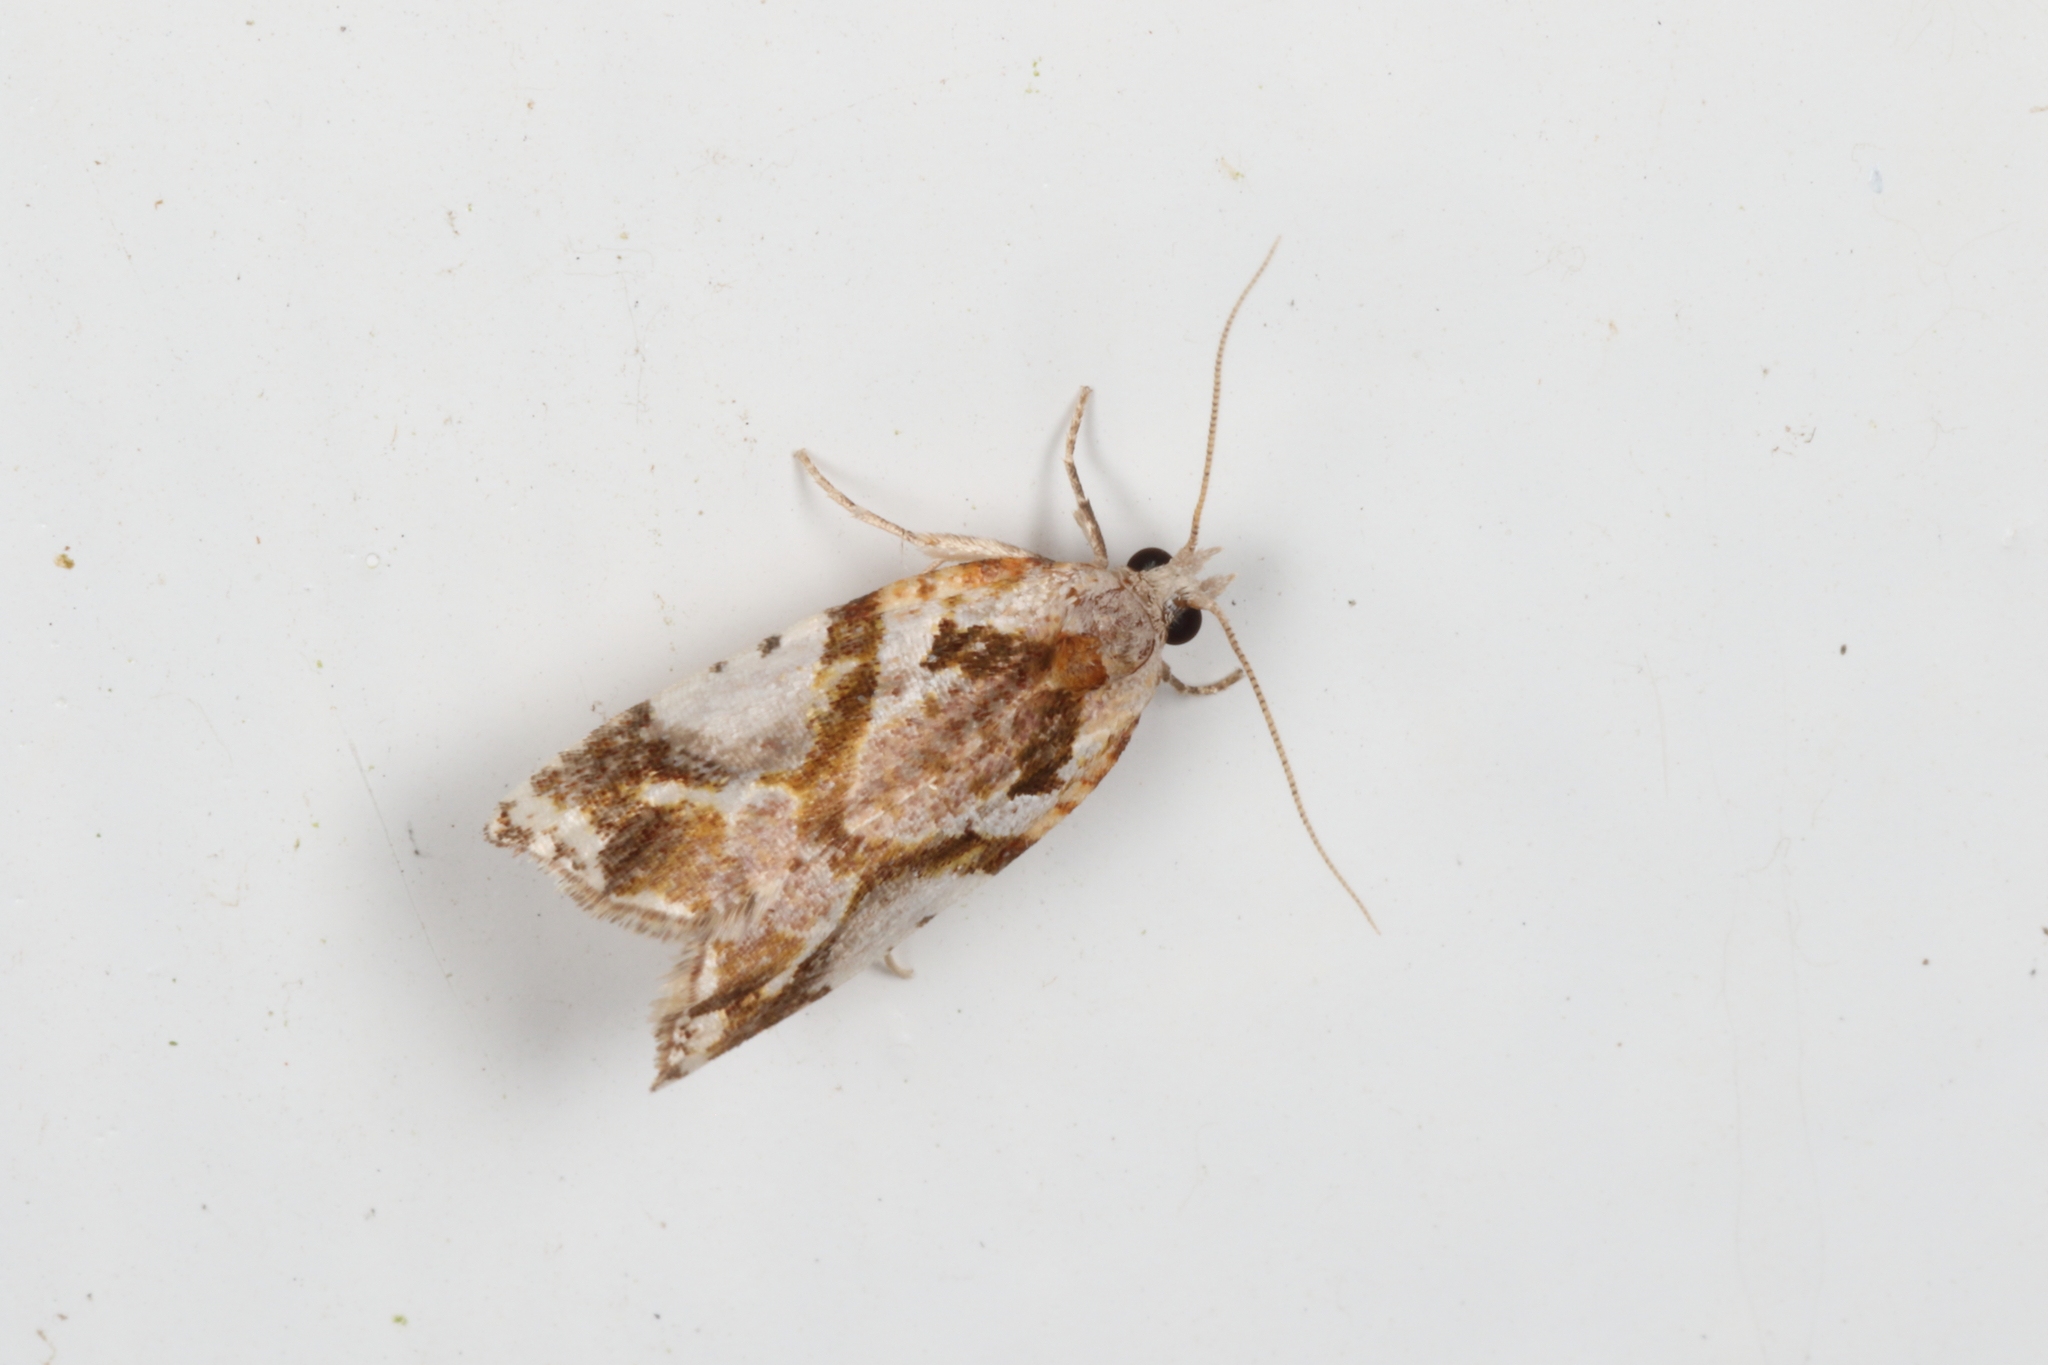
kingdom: Animalia
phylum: Arthropoda
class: Insecta
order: Lepidoptera
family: Tortricidae
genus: Pyrgotis
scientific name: Pyrgotis plagiatana
